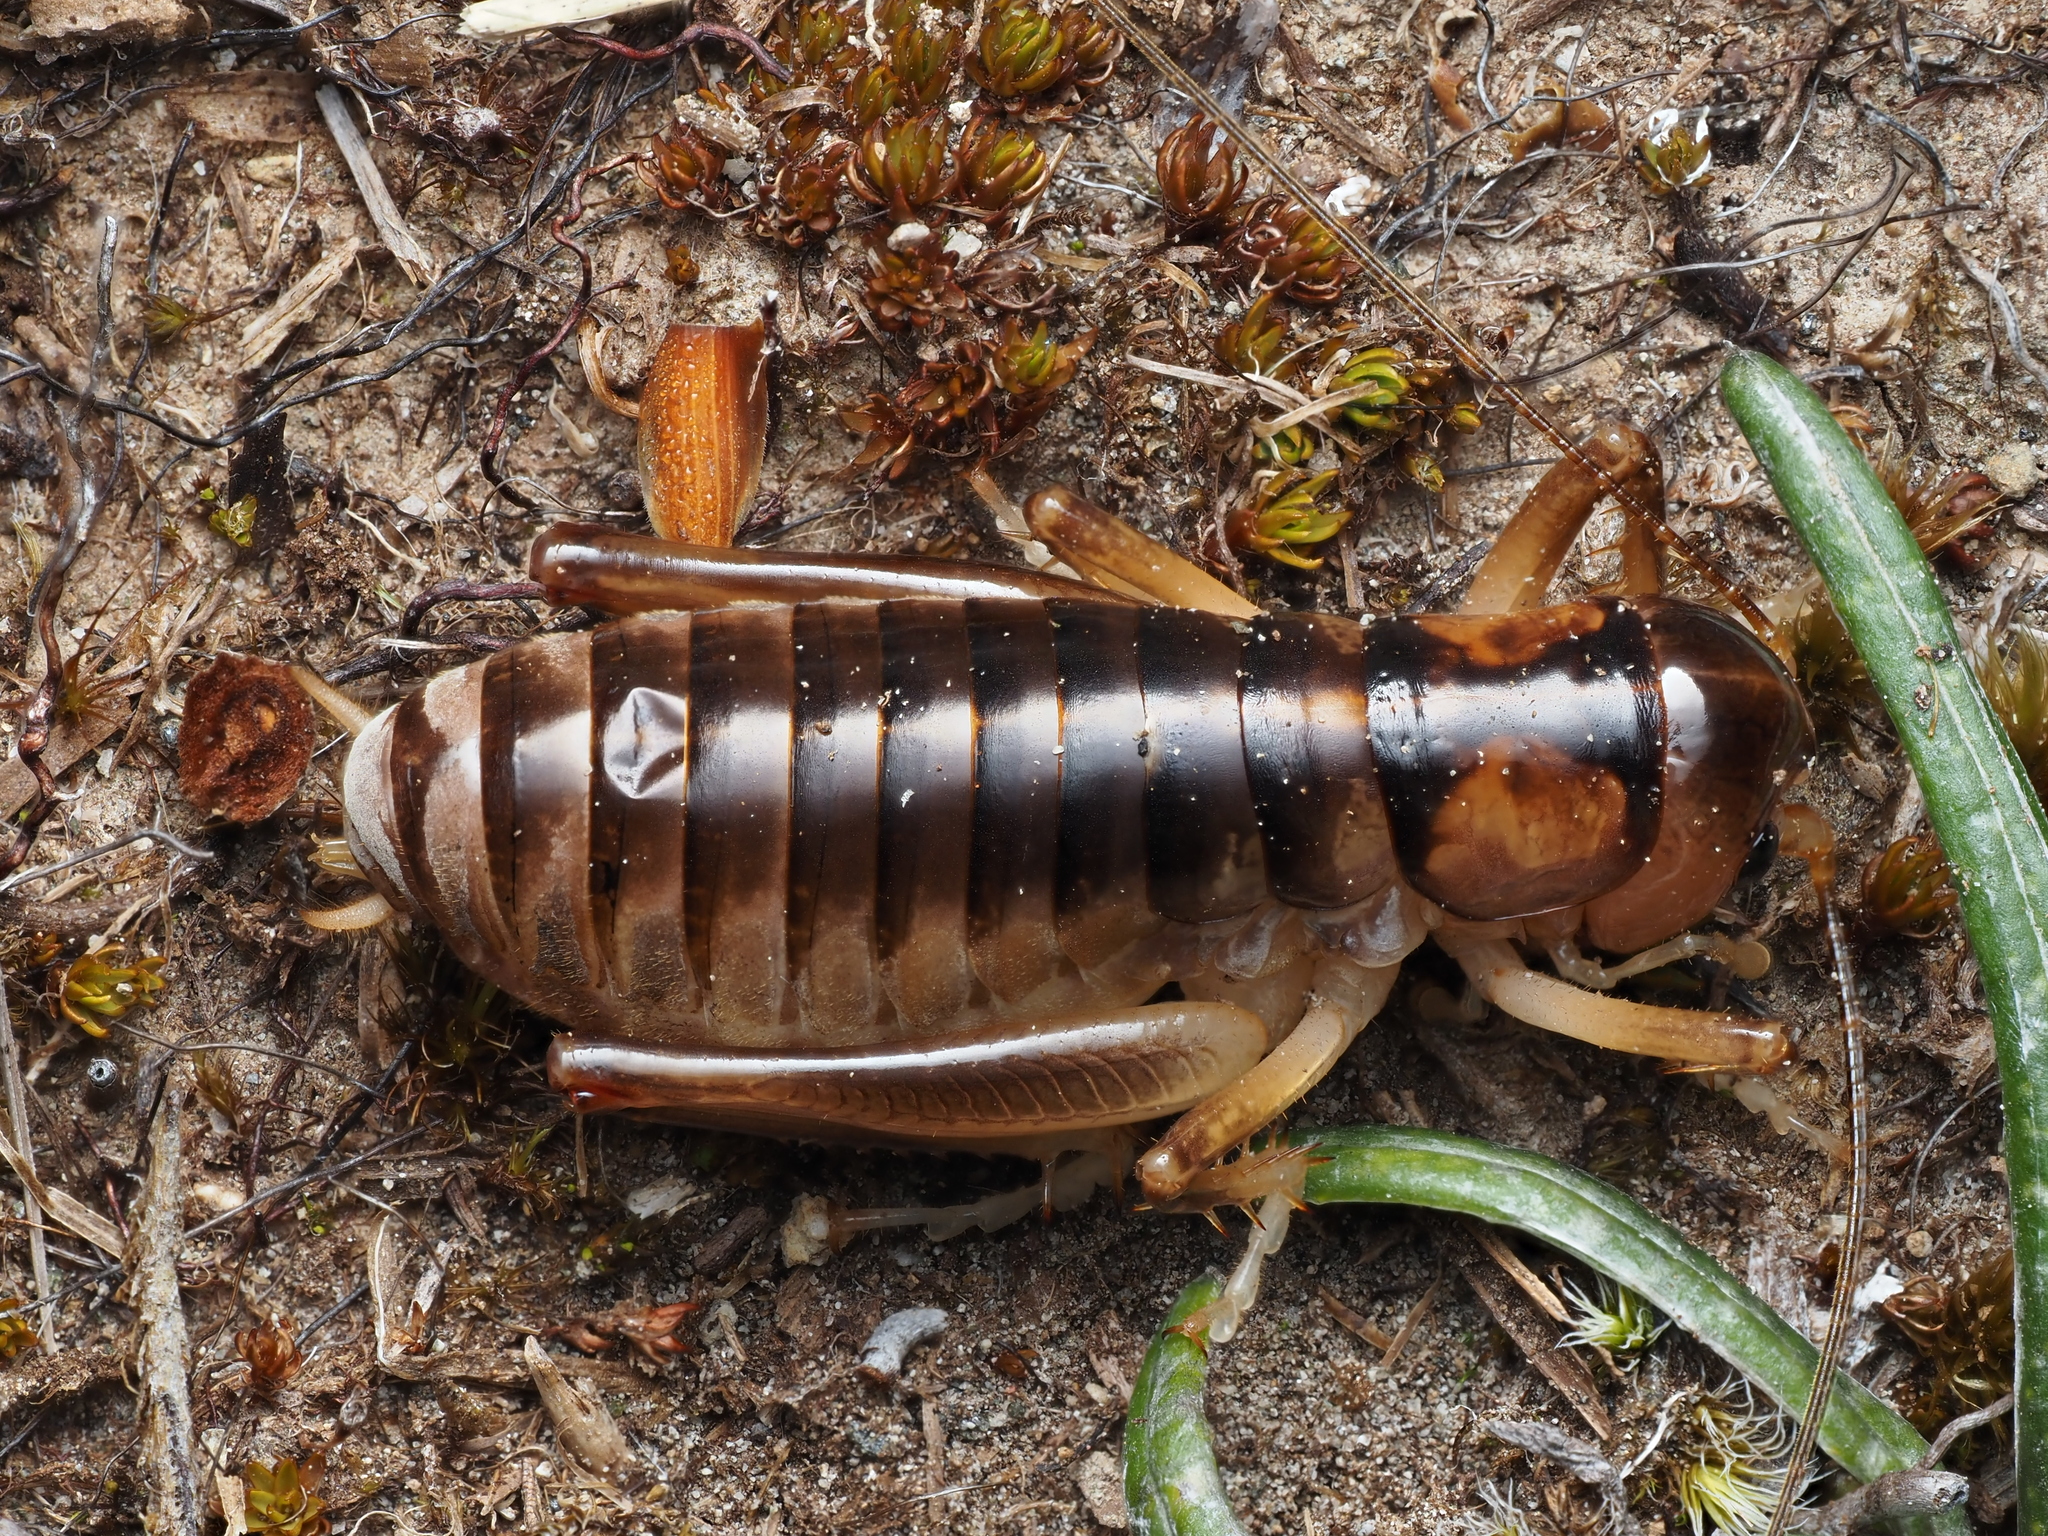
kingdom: Animalia
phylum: Arthropoda
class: Insecta
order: Orthoptera
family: Anostostomatidae
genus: Hemiandrus
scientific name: Hemiandrus pallitarsis
